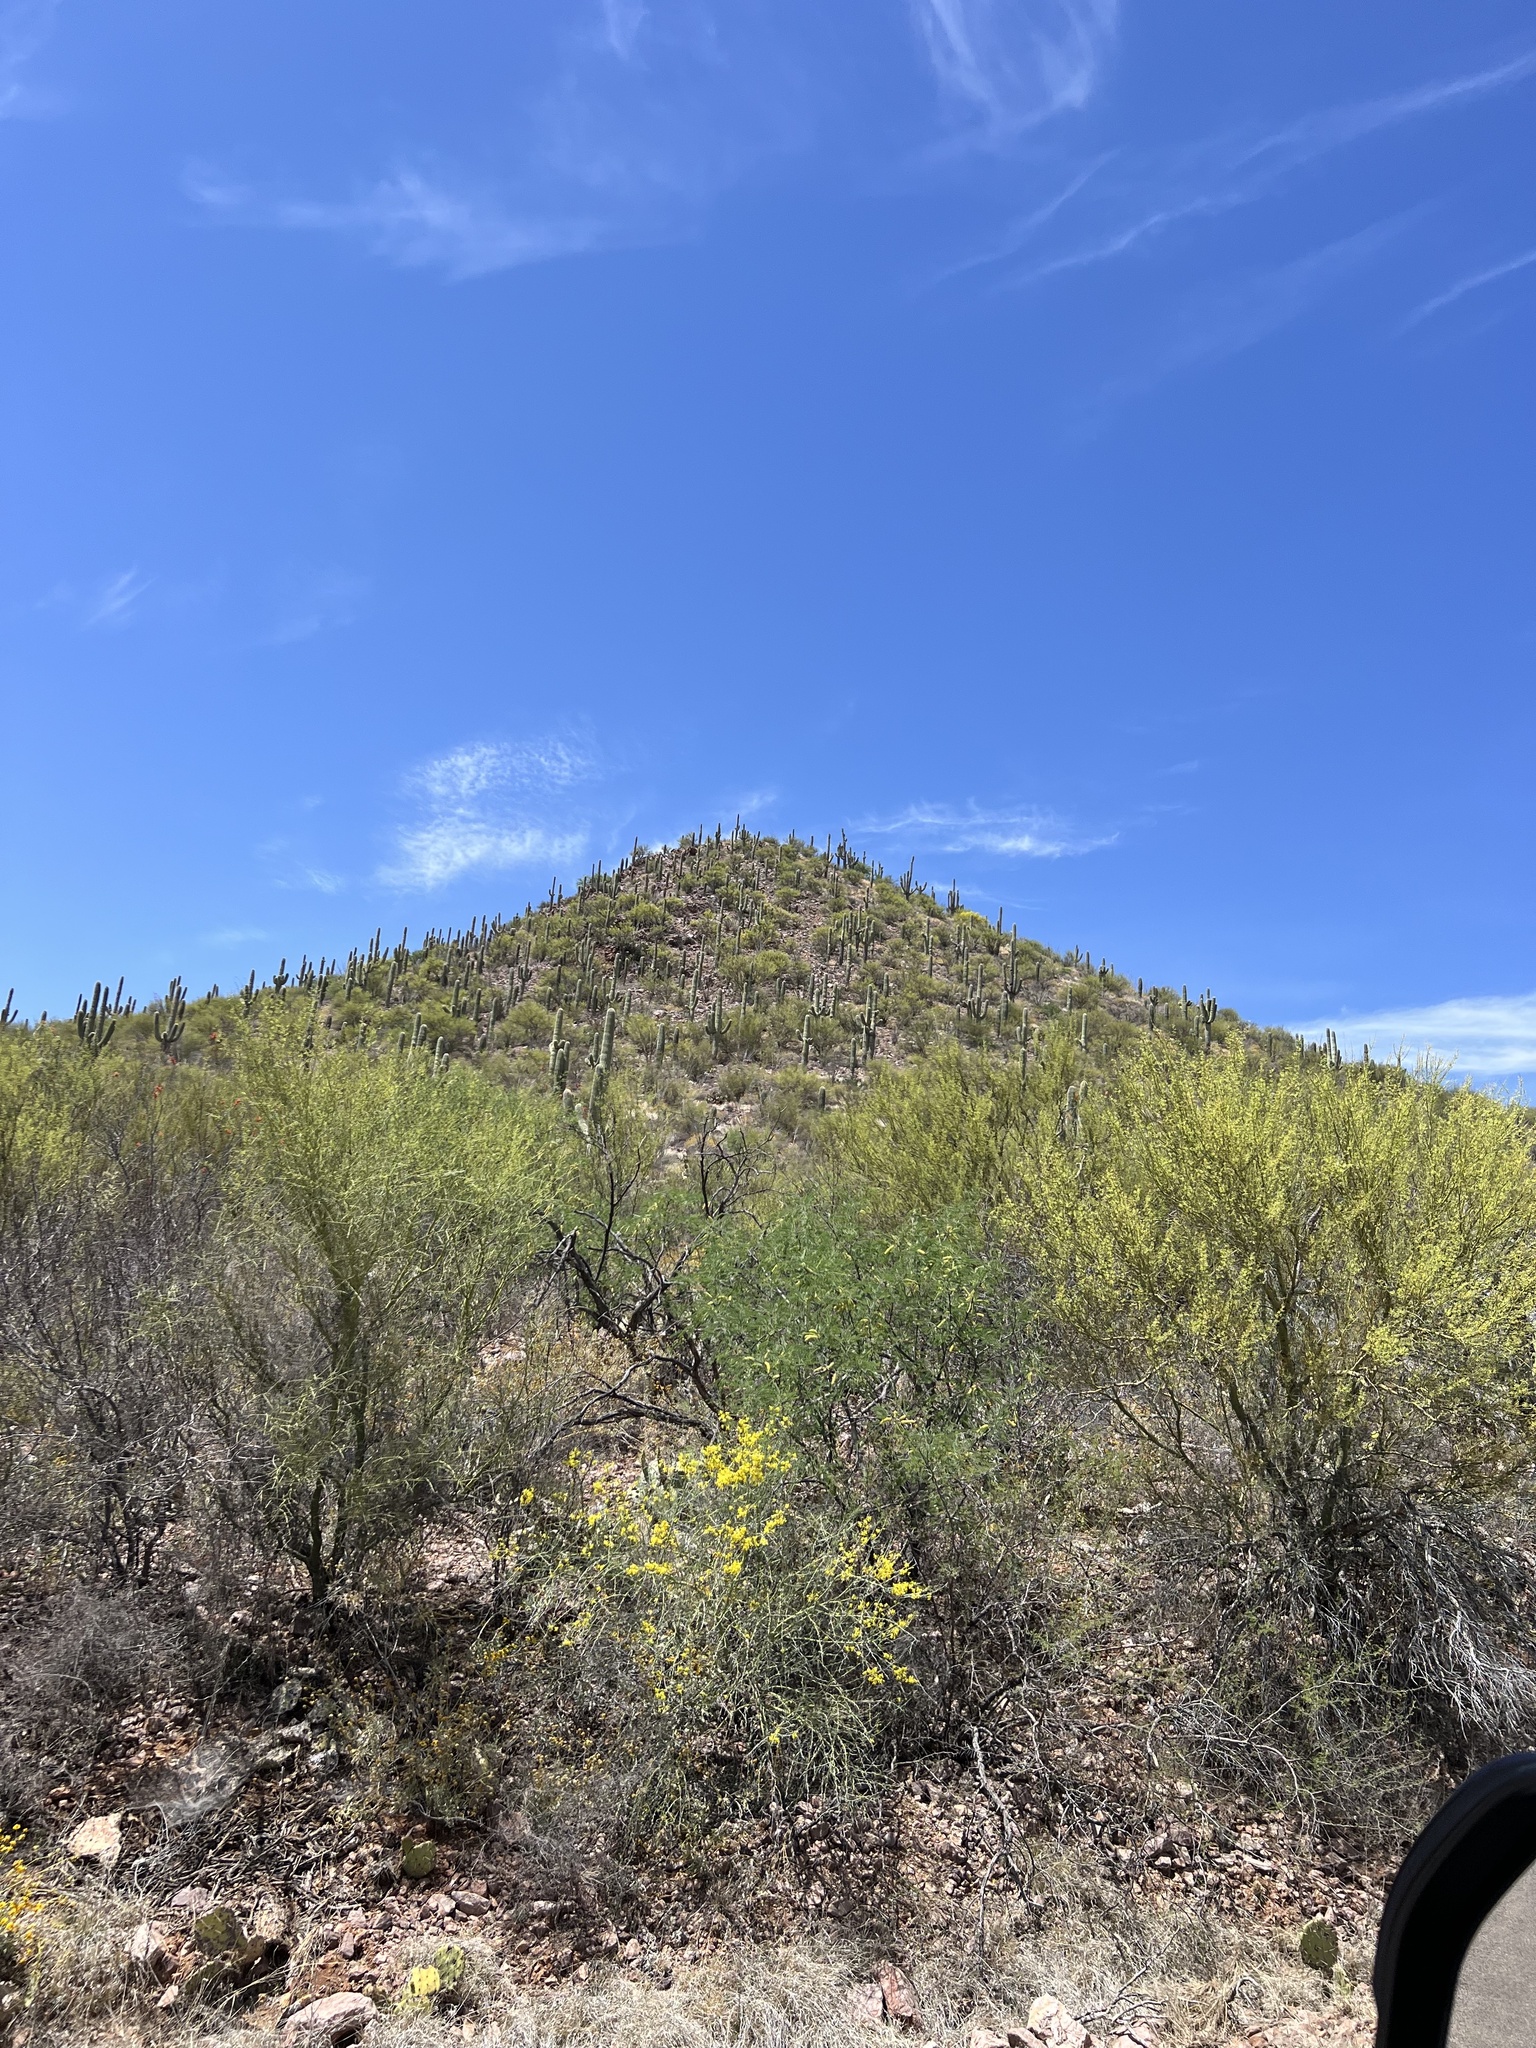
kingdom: Plantae
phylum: Tracheophyta
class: Magnoliopsida
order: Caryophyllales
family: Cactaceae
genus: Carnegiea
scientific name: Carnegiea gigantea
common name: Saguaro
